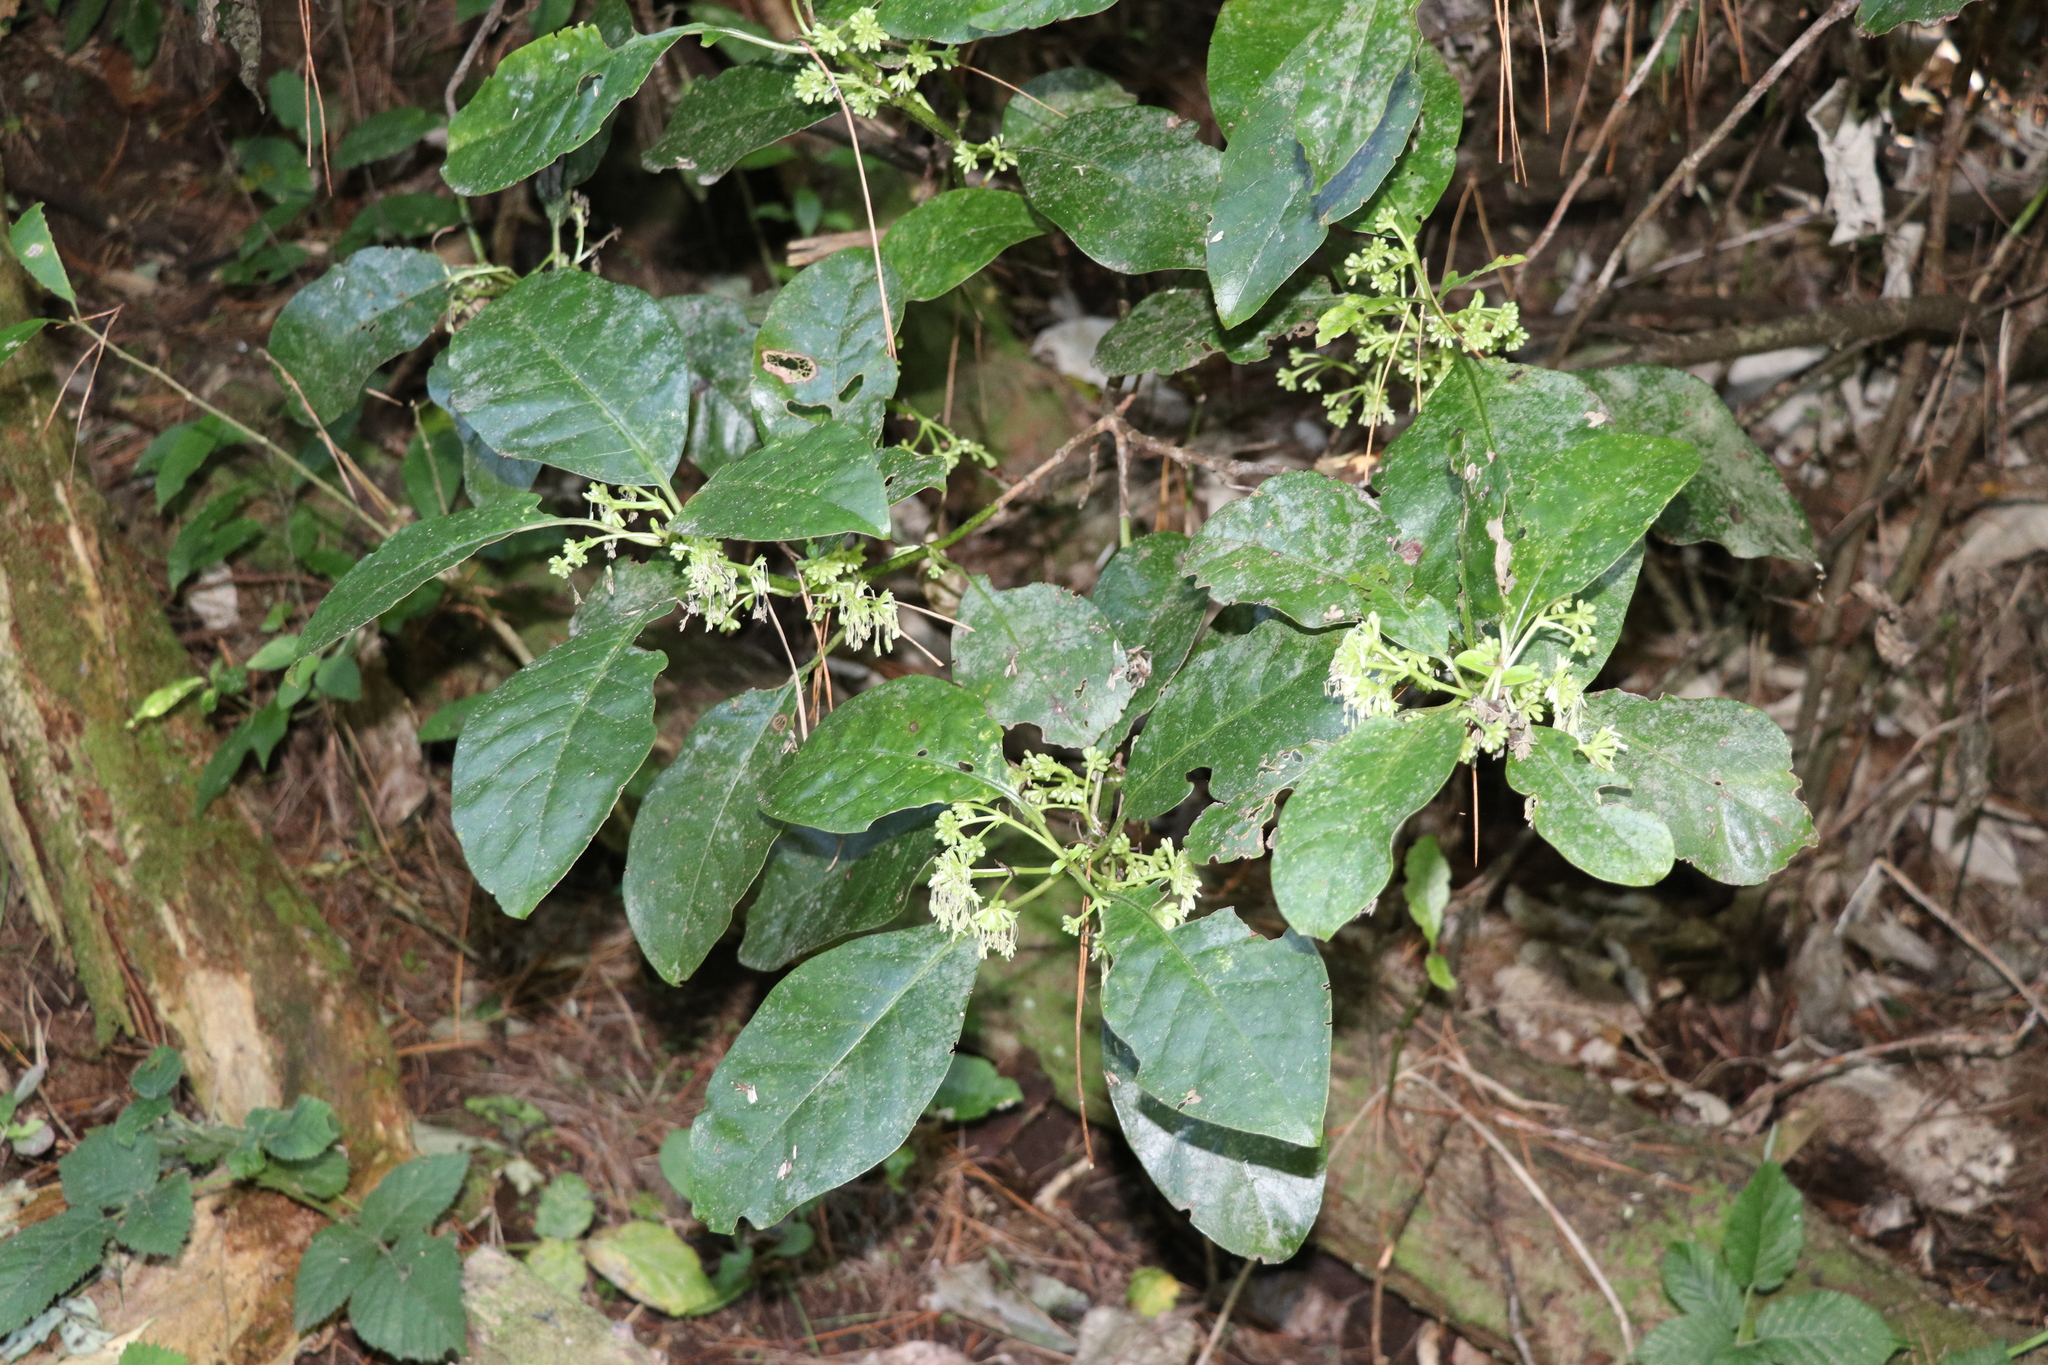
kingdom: Plantae
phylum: Tracheophyta
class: Magnoliopsida
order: Gentianales
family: Rubiaceae
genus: Coprosma
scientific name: Coprosma autumnalis
